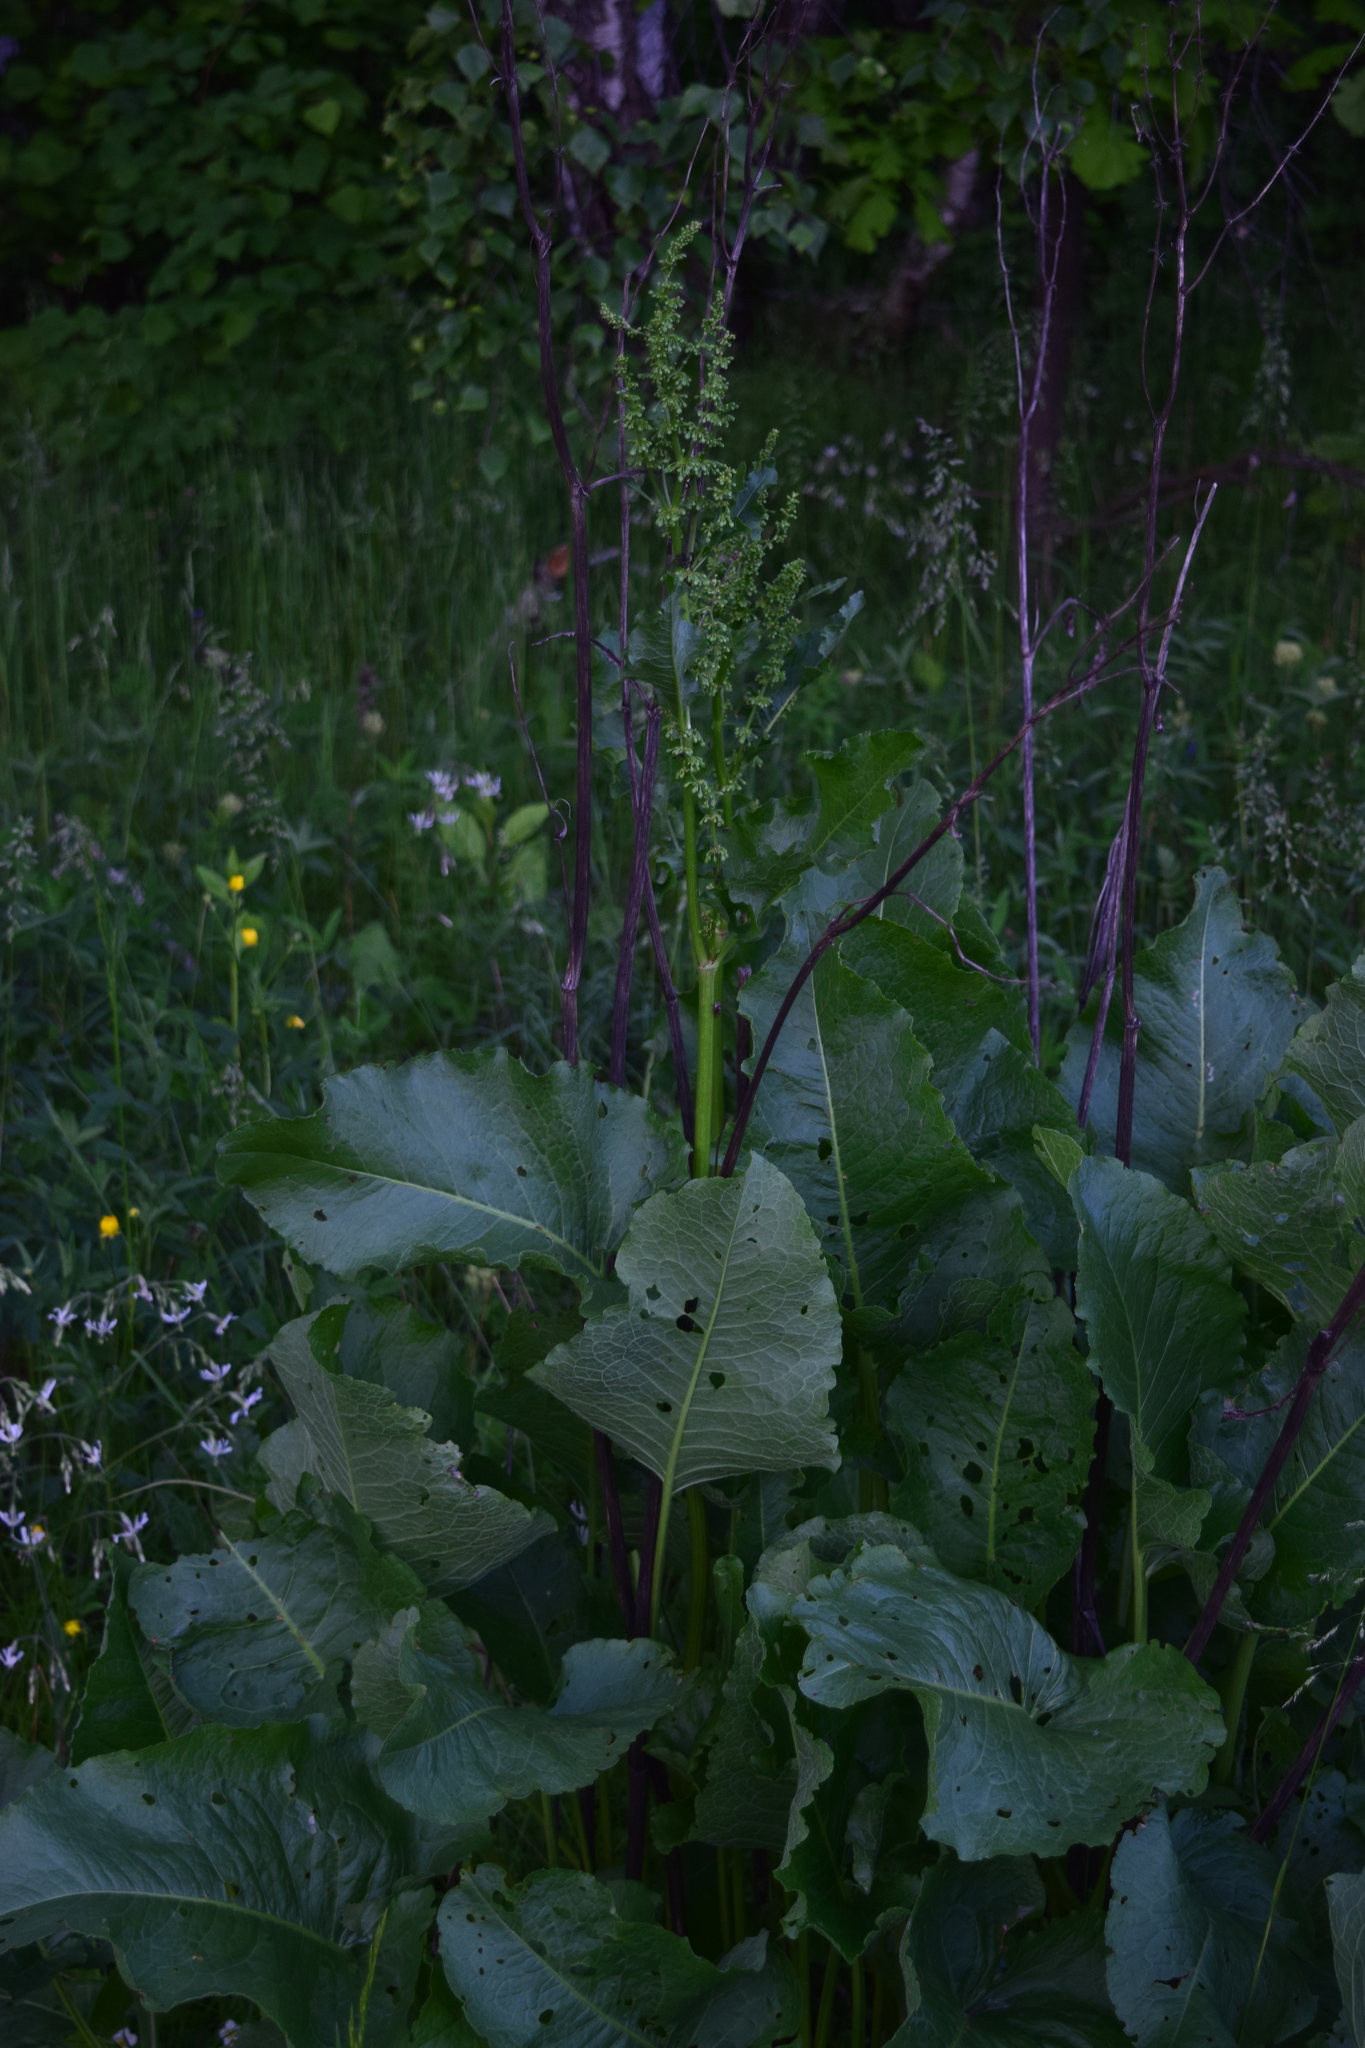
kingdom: Plantae
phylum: Tracheophyta
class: Magnoliopsida
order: Caryophyllales
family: Polygonaceae
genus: Rumex
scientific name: Rumex confertus
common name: Russian dock
